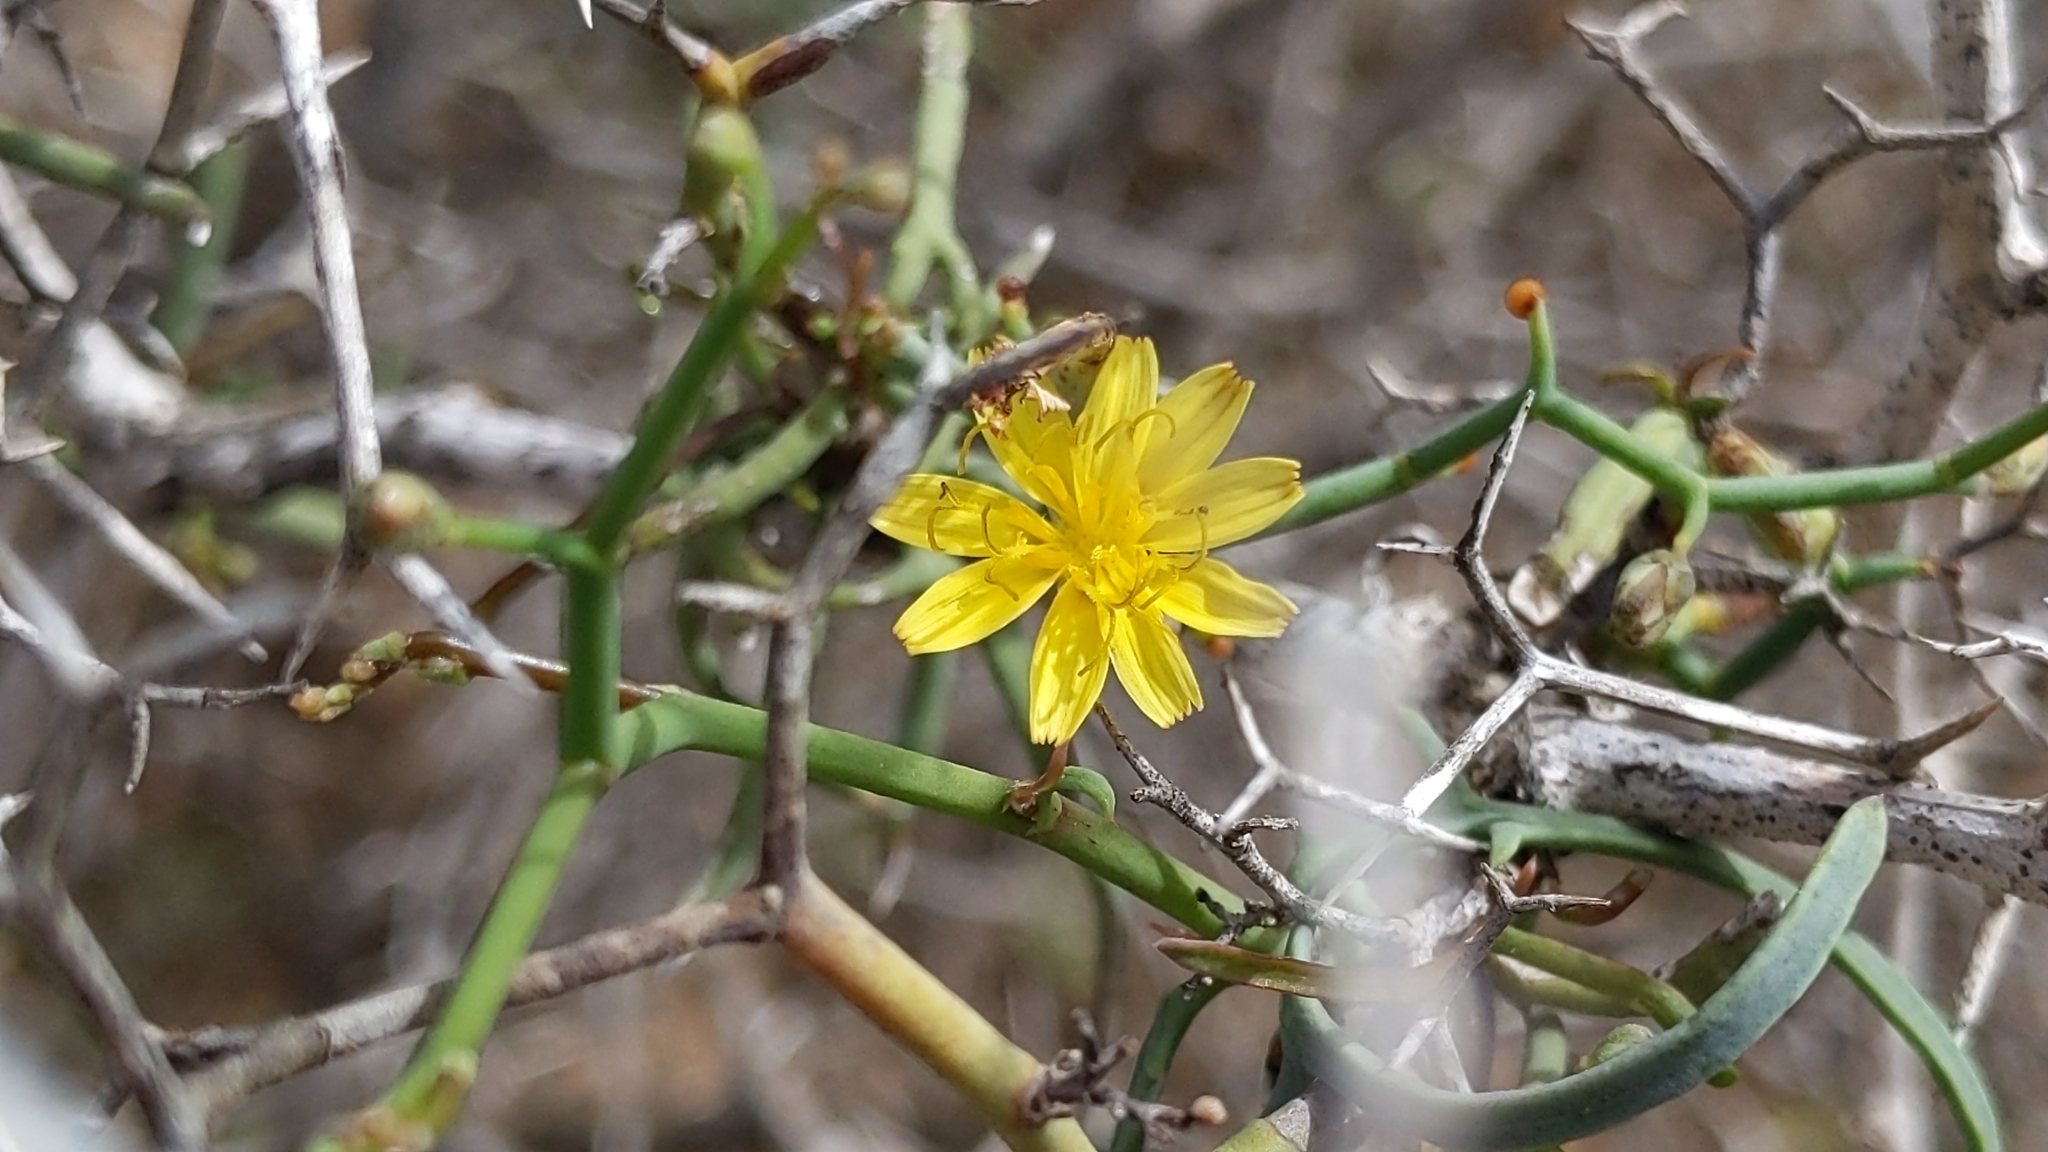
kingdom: Plantae
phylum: Tracheophyta
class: Magnoliopsida
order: Asterales
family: Asteraceae
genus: Launaea
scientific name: Launaea arborescens
